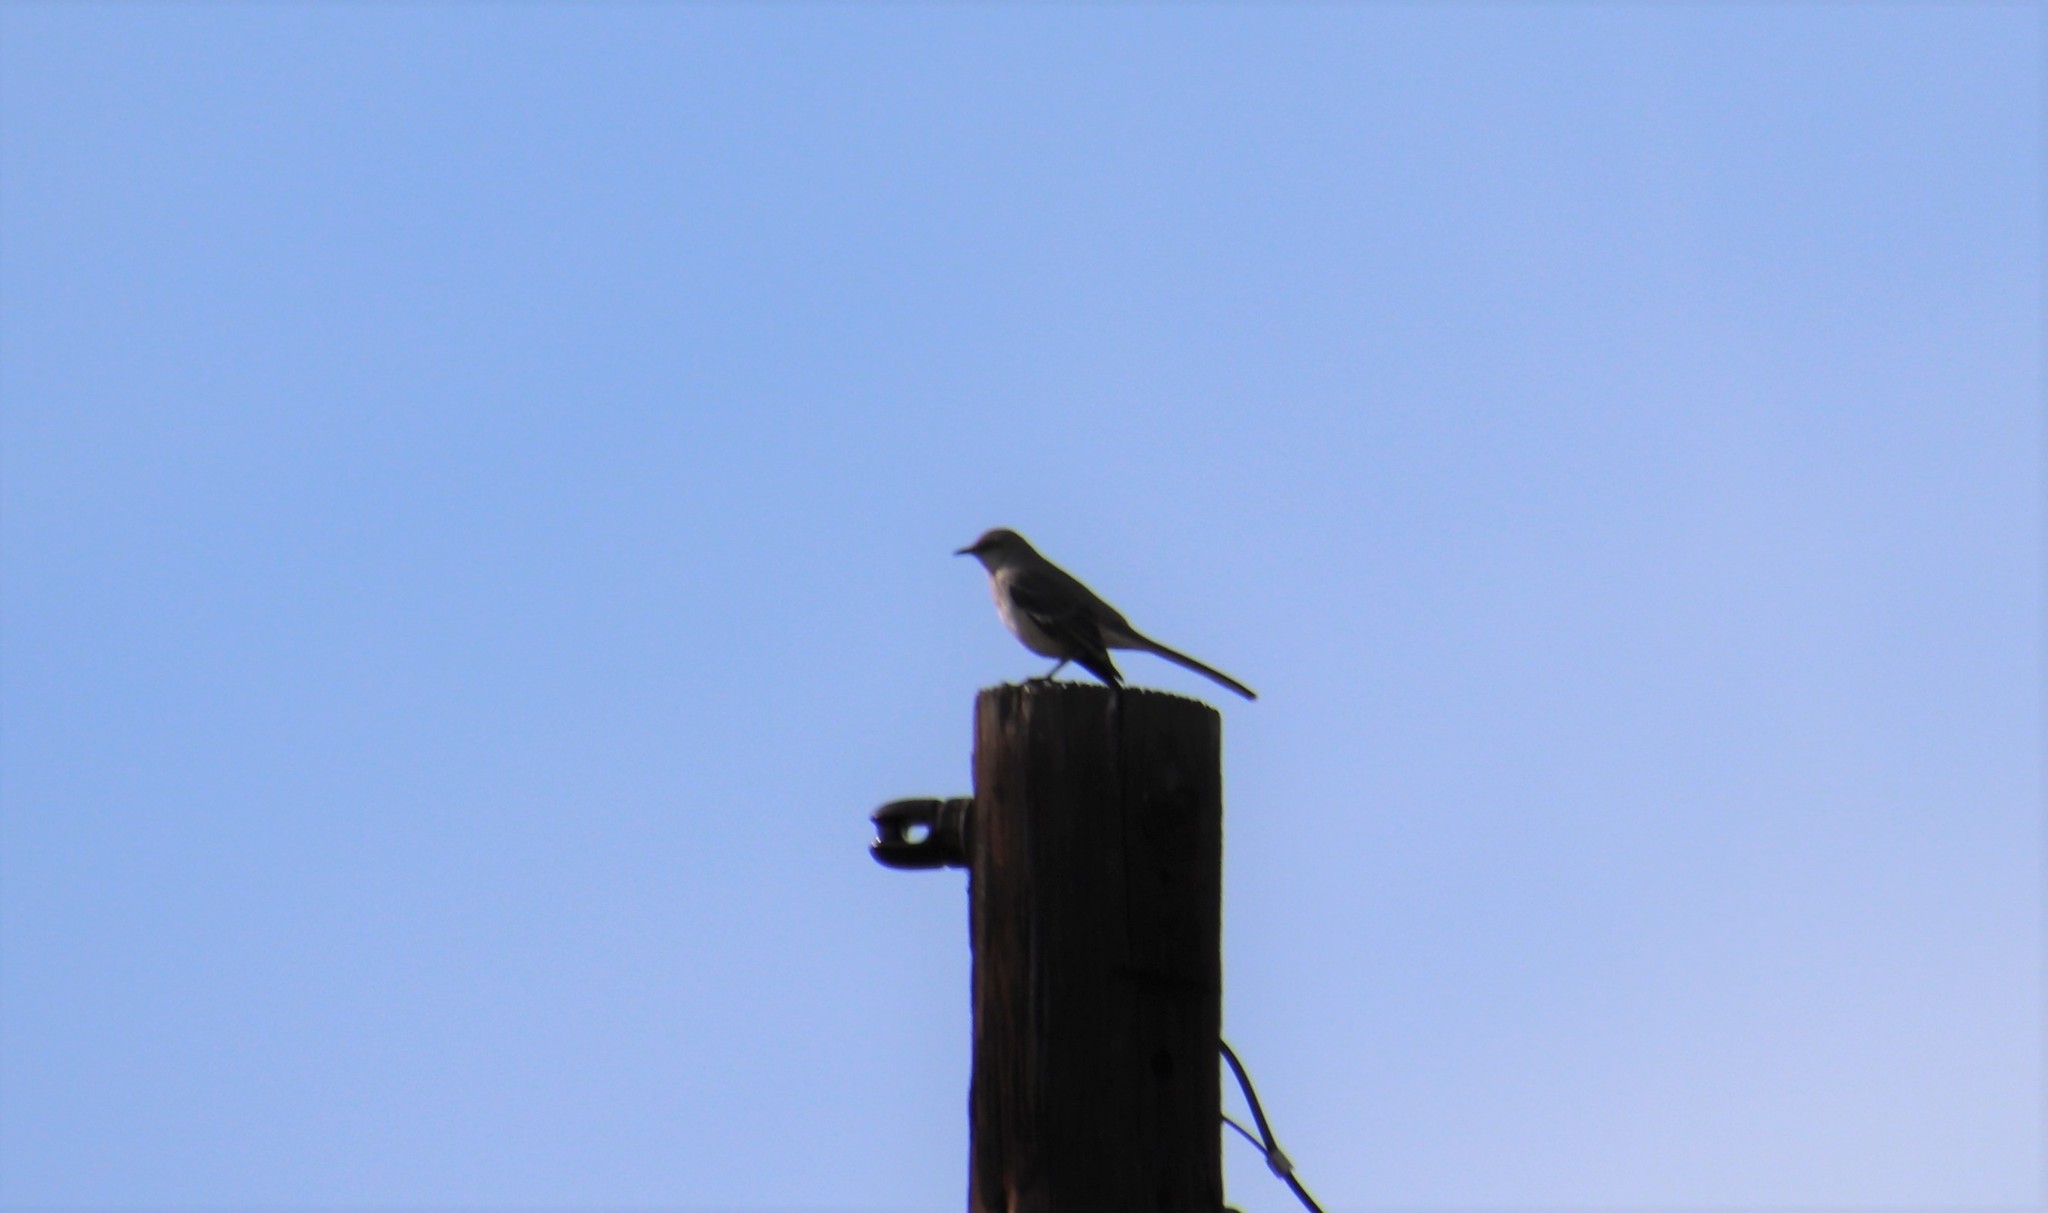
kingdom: Animalia
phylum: Chordata
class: Aves
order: Passeriformes
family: Mimidae
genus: Mimus
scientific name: Mimus polyglottos
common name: Northern mockingbird
